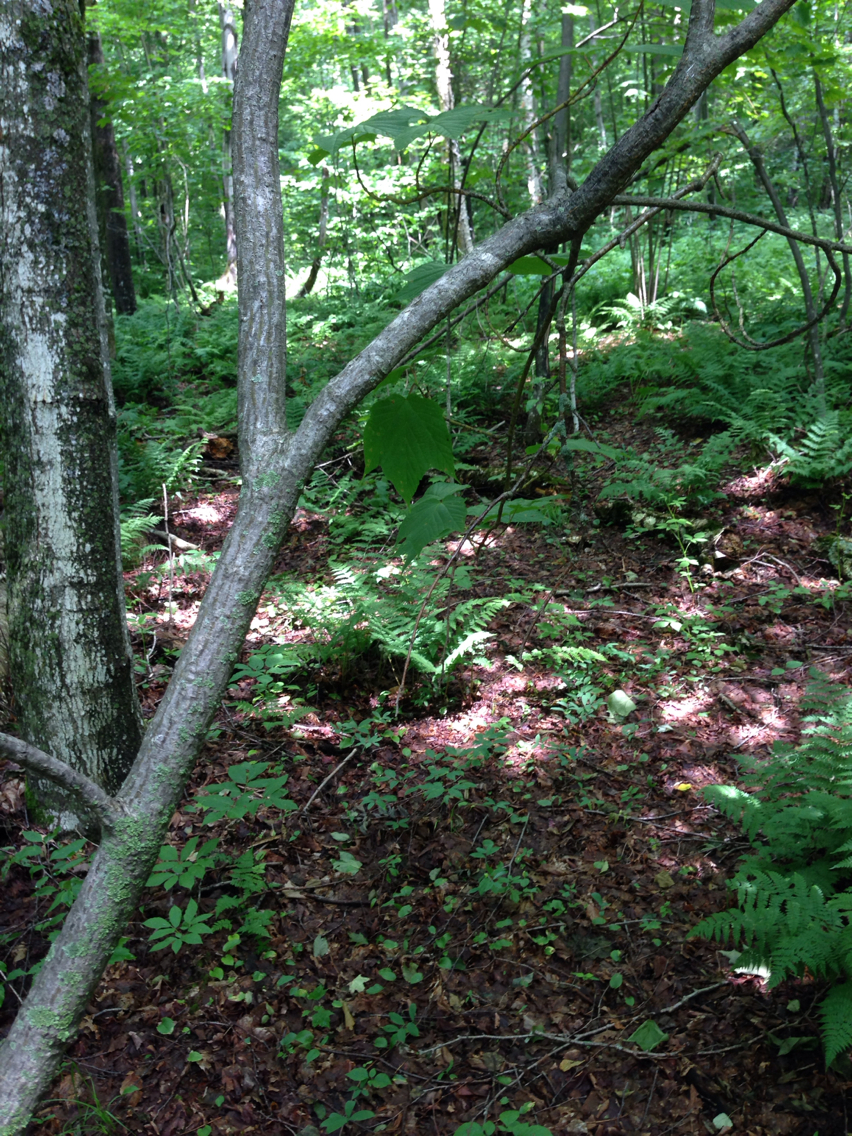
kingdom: Plantae
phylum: Tracheophyta
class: Magnoliopsida
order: Sapindales
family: Sapindaceae
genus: Acer
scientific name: Acer pensylvanicum
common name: Moosewood
